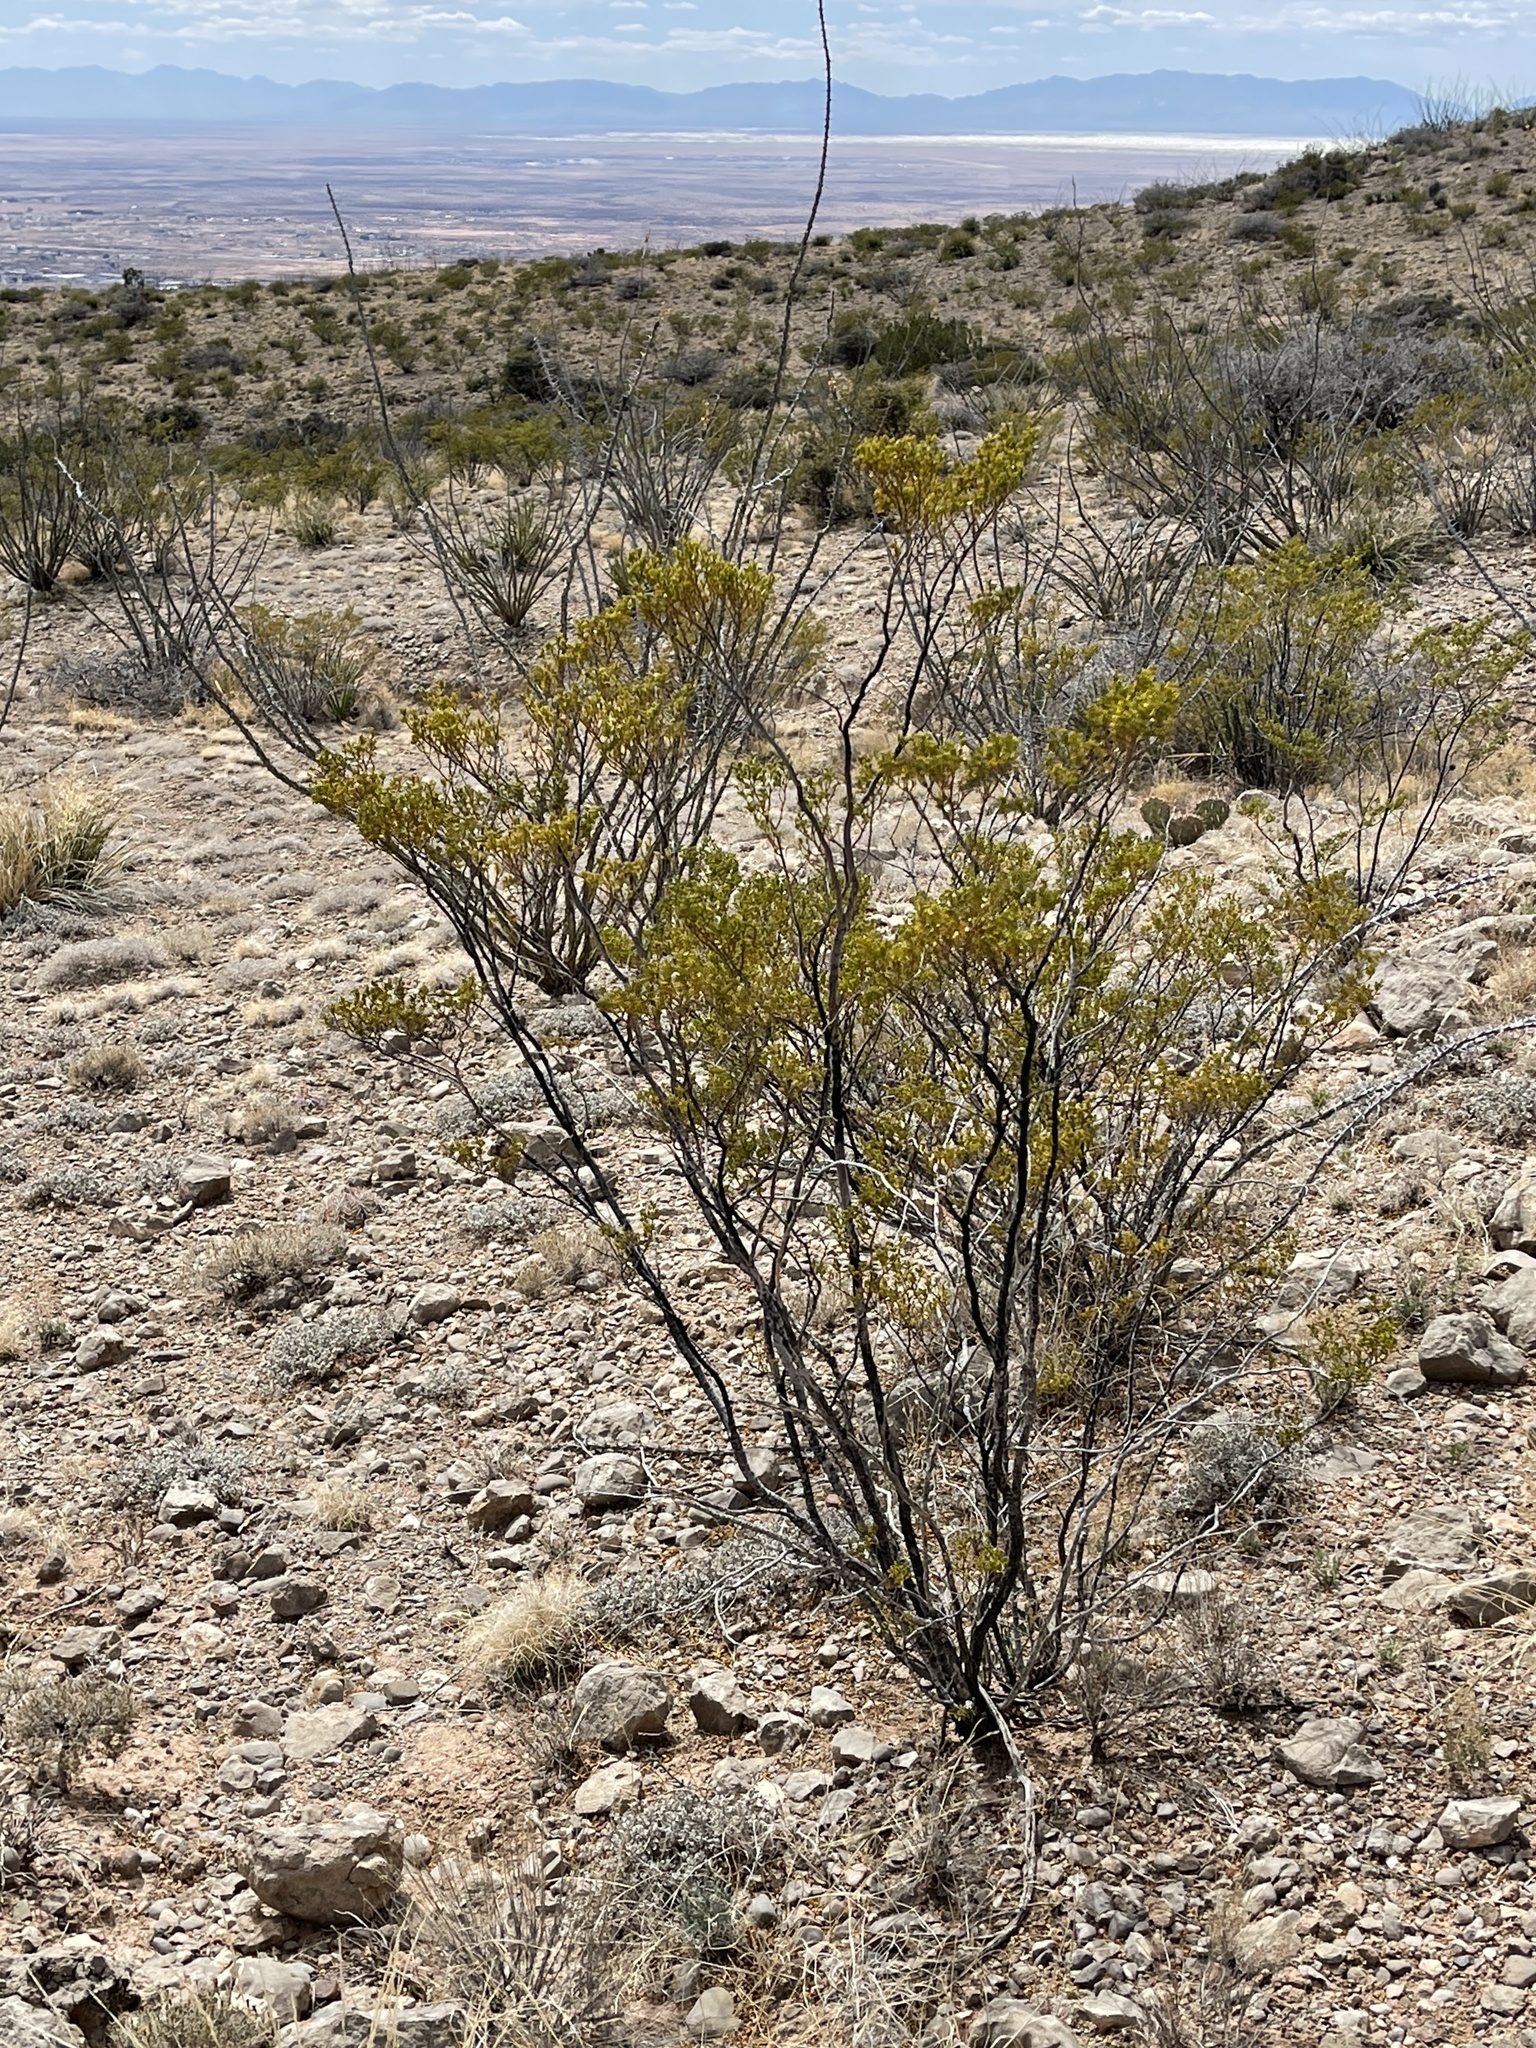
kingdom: Plantae
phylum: Tracheophyta
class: Magnoliopsida
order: Zygophyllales
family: Zygophyllaceae
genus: Larrea
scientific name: Larrea tridentata
